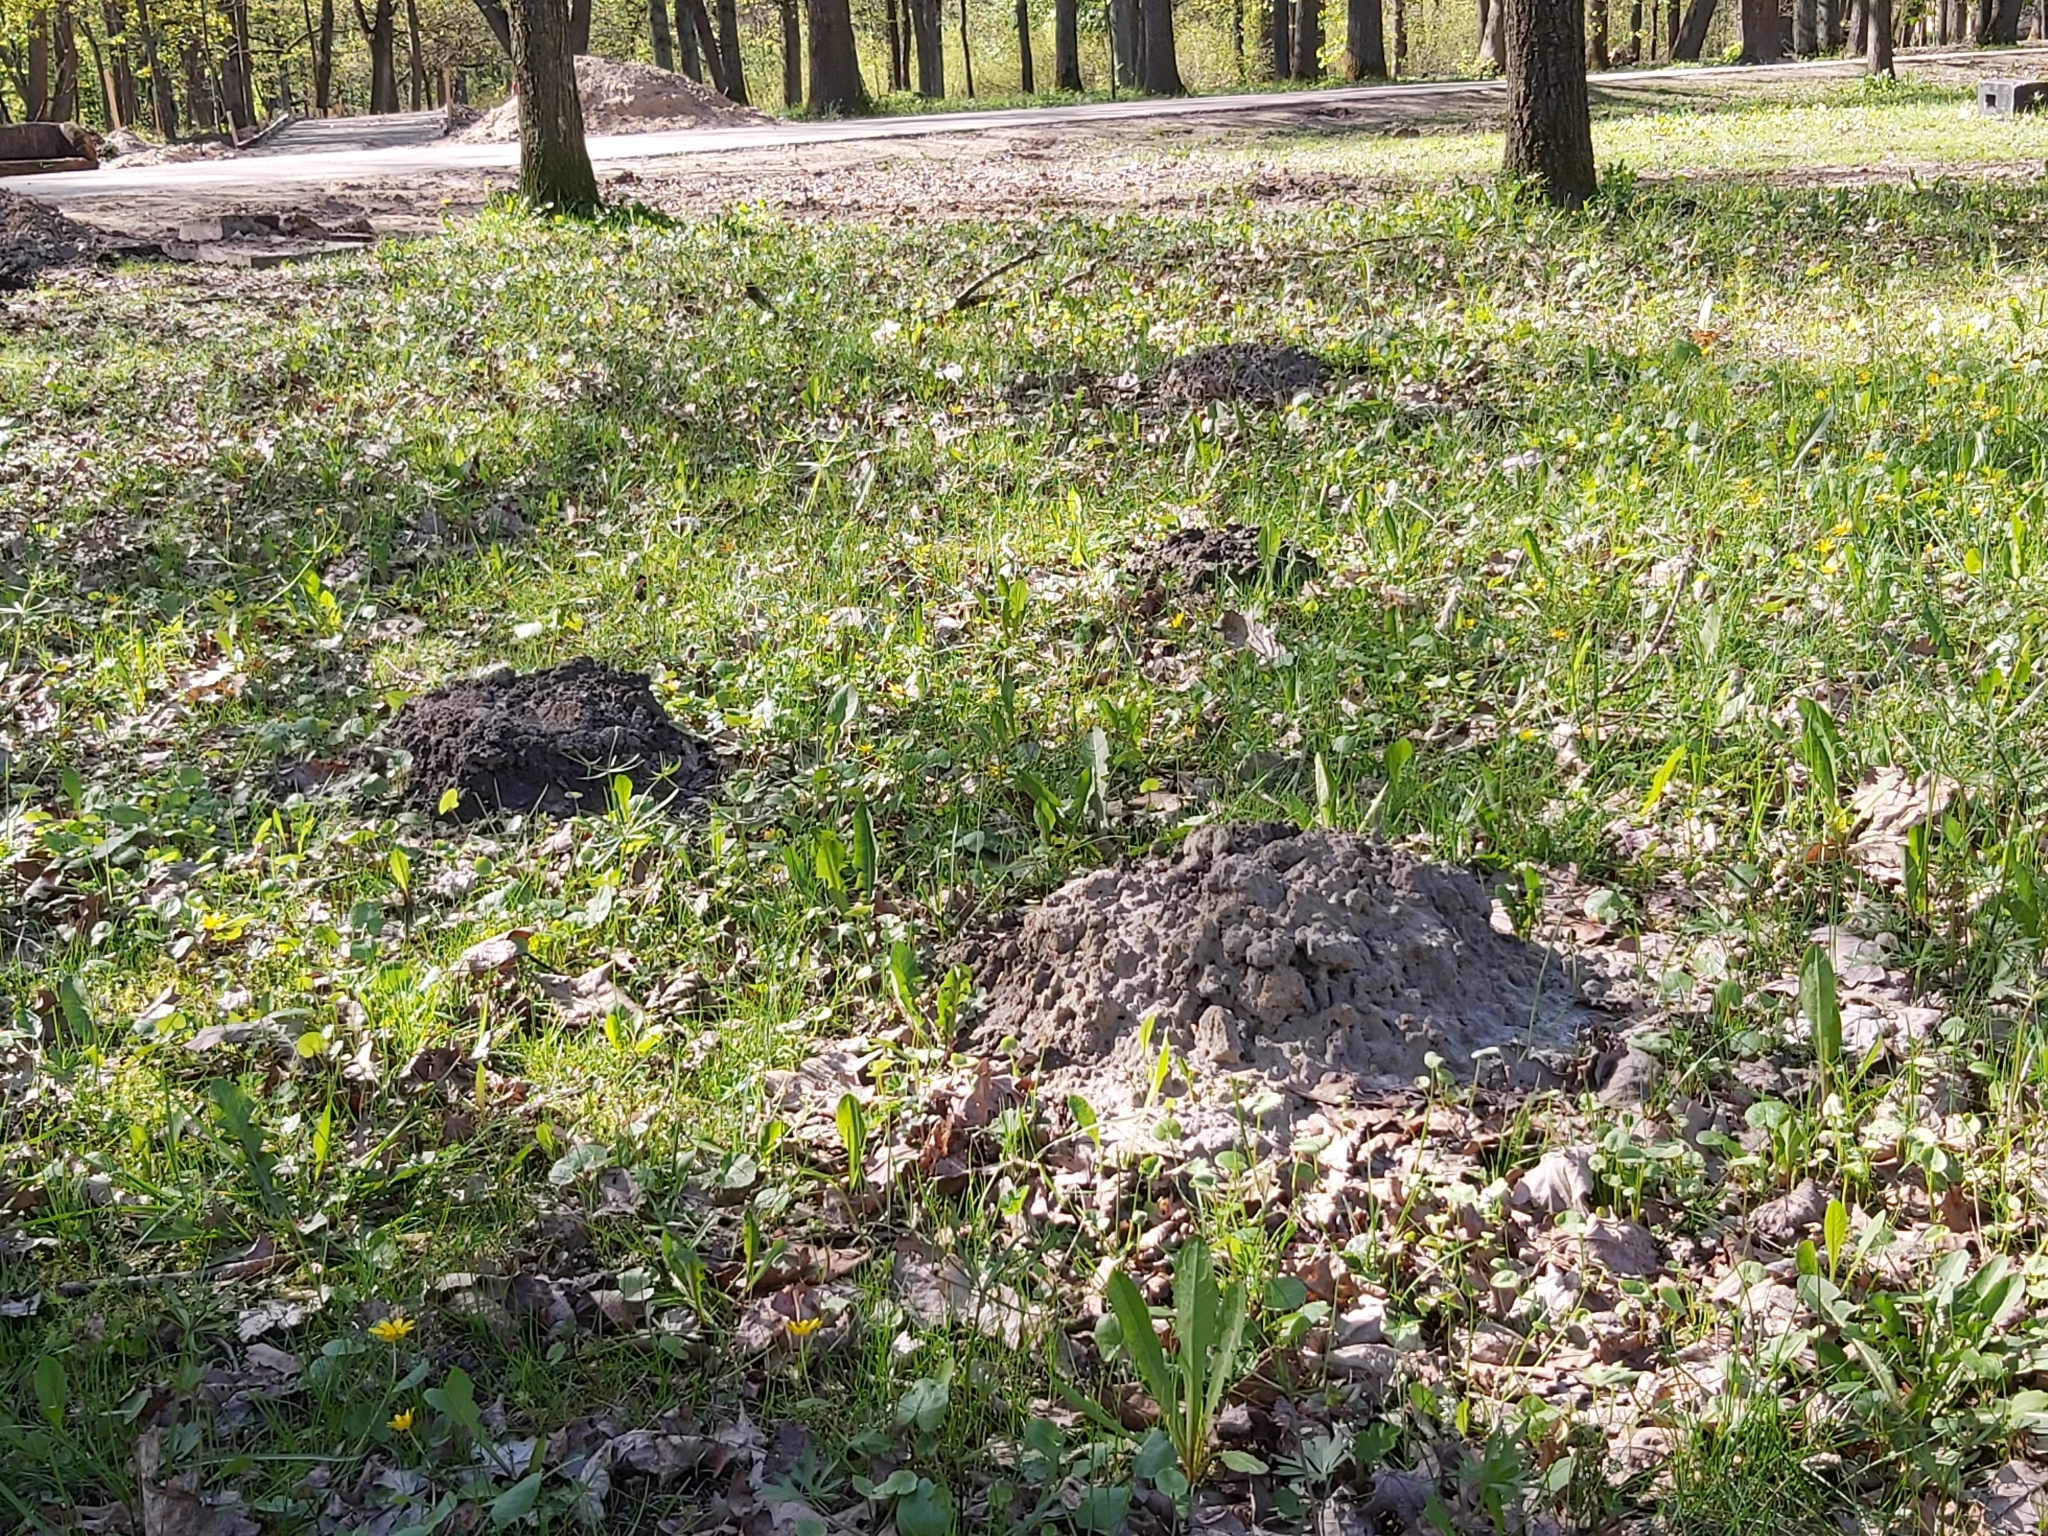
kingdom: Animalia
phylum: Chordata
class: Mammalia
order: Soricomorpha
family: Talpidae
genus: Talpa
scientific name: Talpa europaea
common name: European mole
